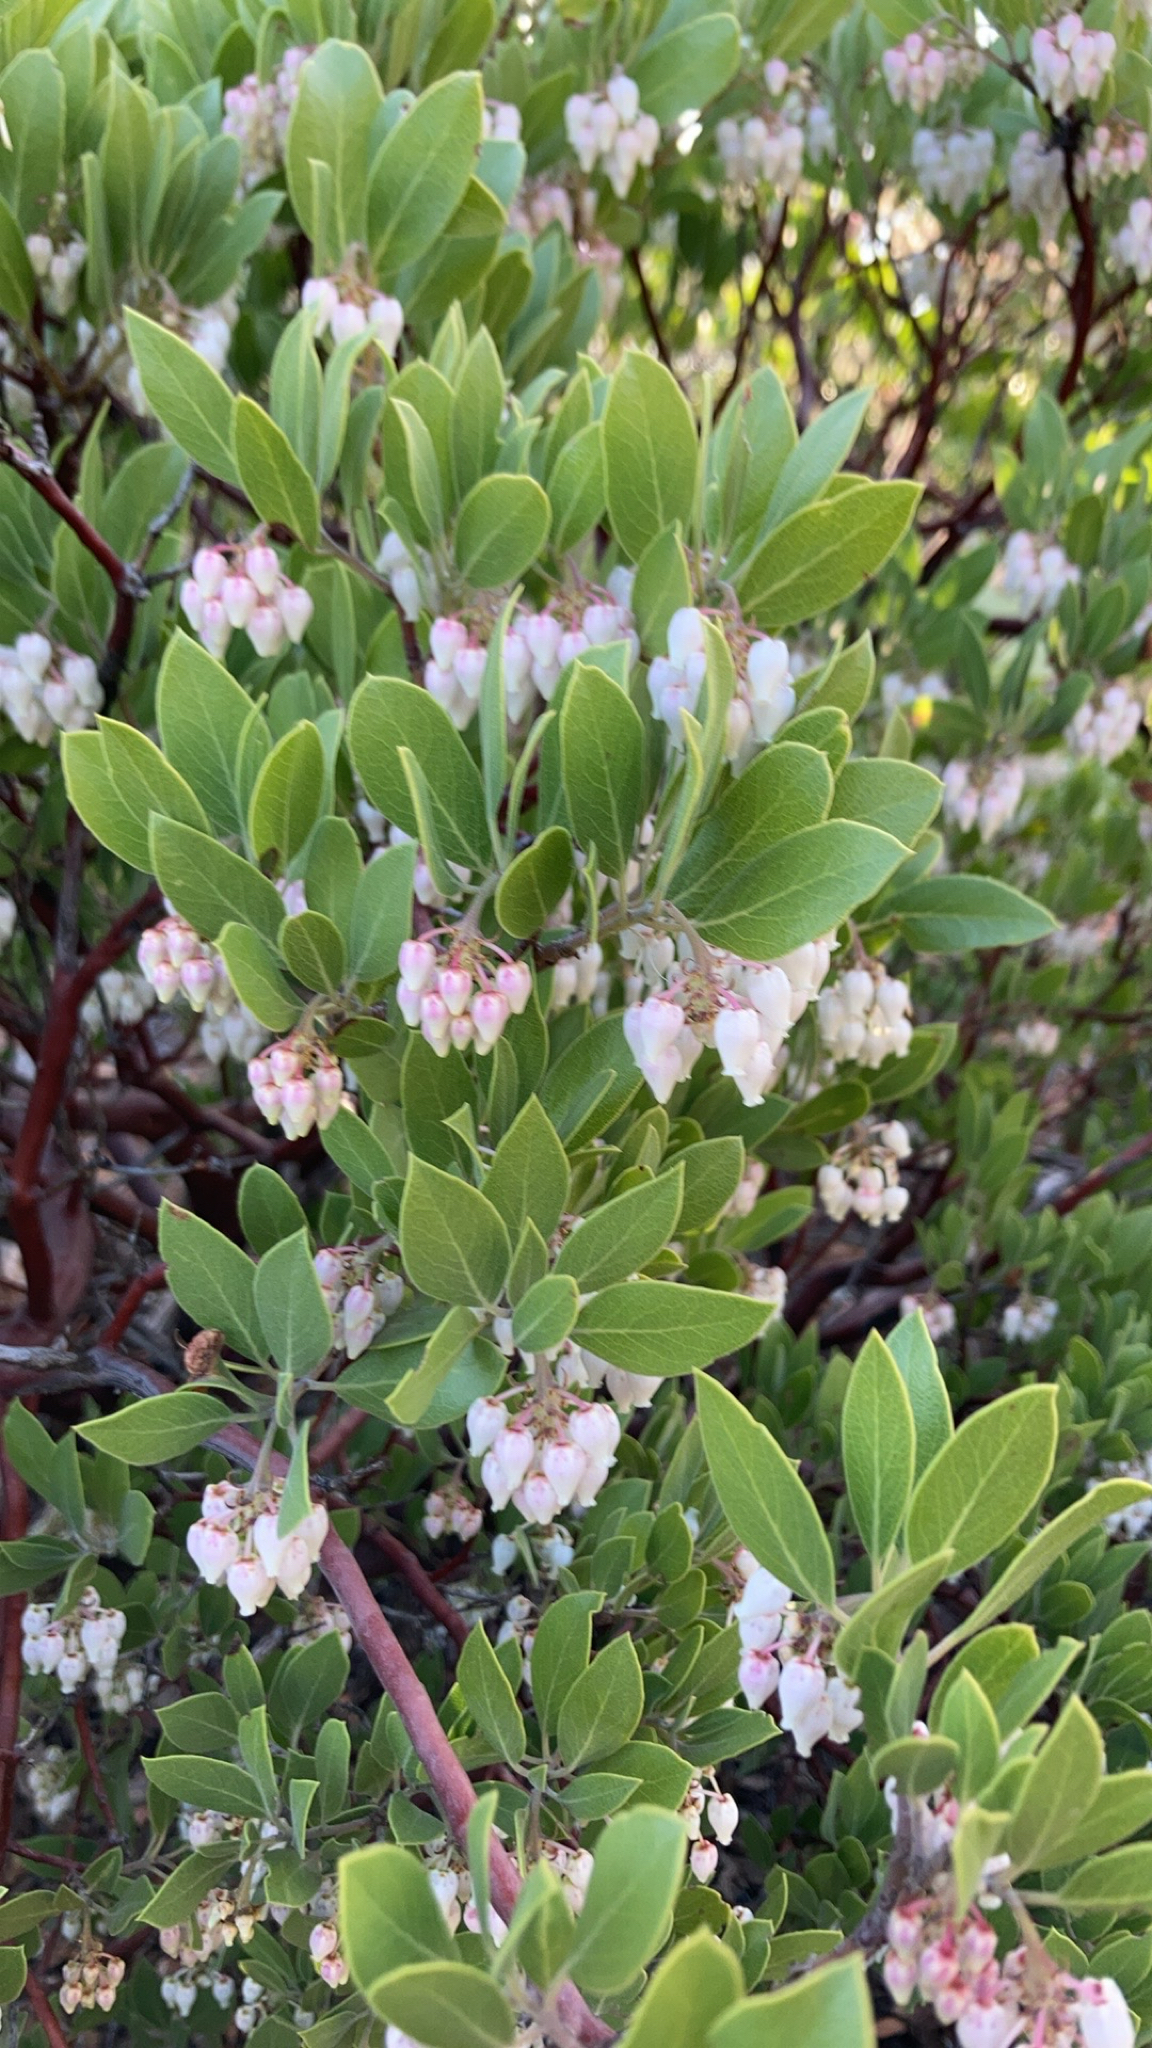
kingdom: Plantae
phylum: Tracheophyta
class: Magnoliopsida
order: Ericales
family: Ericaceae
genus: Arctostaphylos
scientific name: Arctostaphylos pungens
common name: Mexican manzanita
